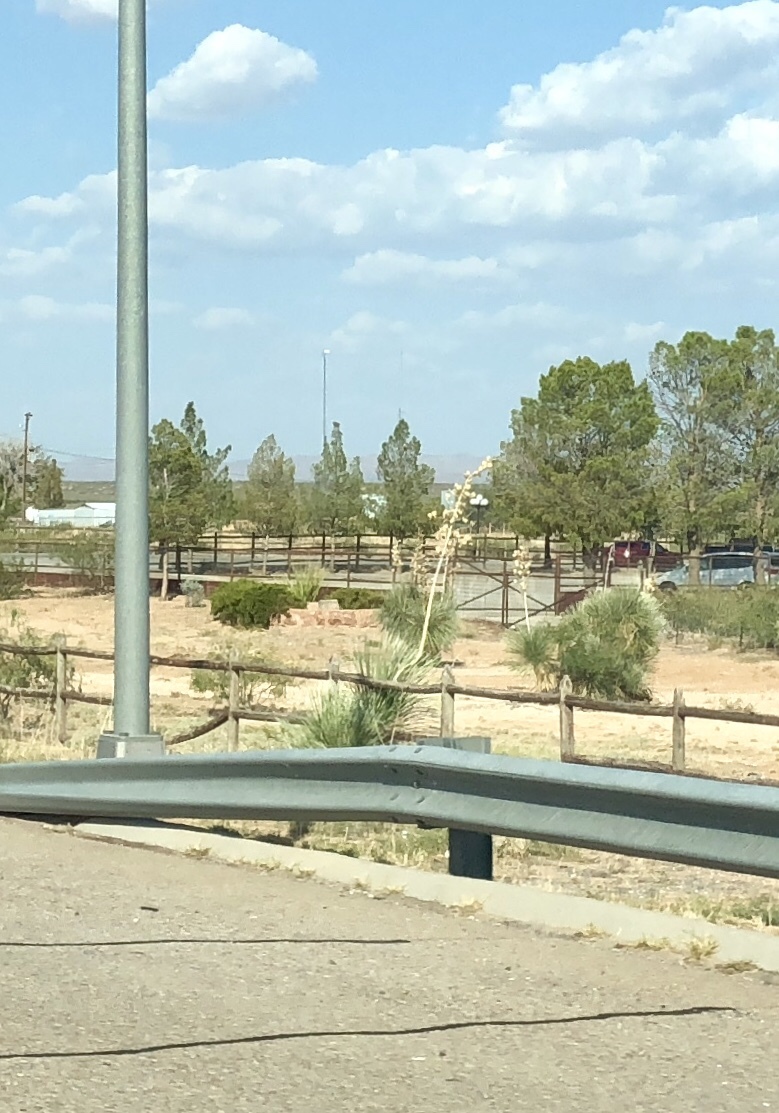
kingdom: Plantae
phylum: Tracheophyta
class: Liliopsida
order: Asparagales
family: Asparagaceae
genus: Yucca
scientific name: Yucca elata
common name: Palmella
